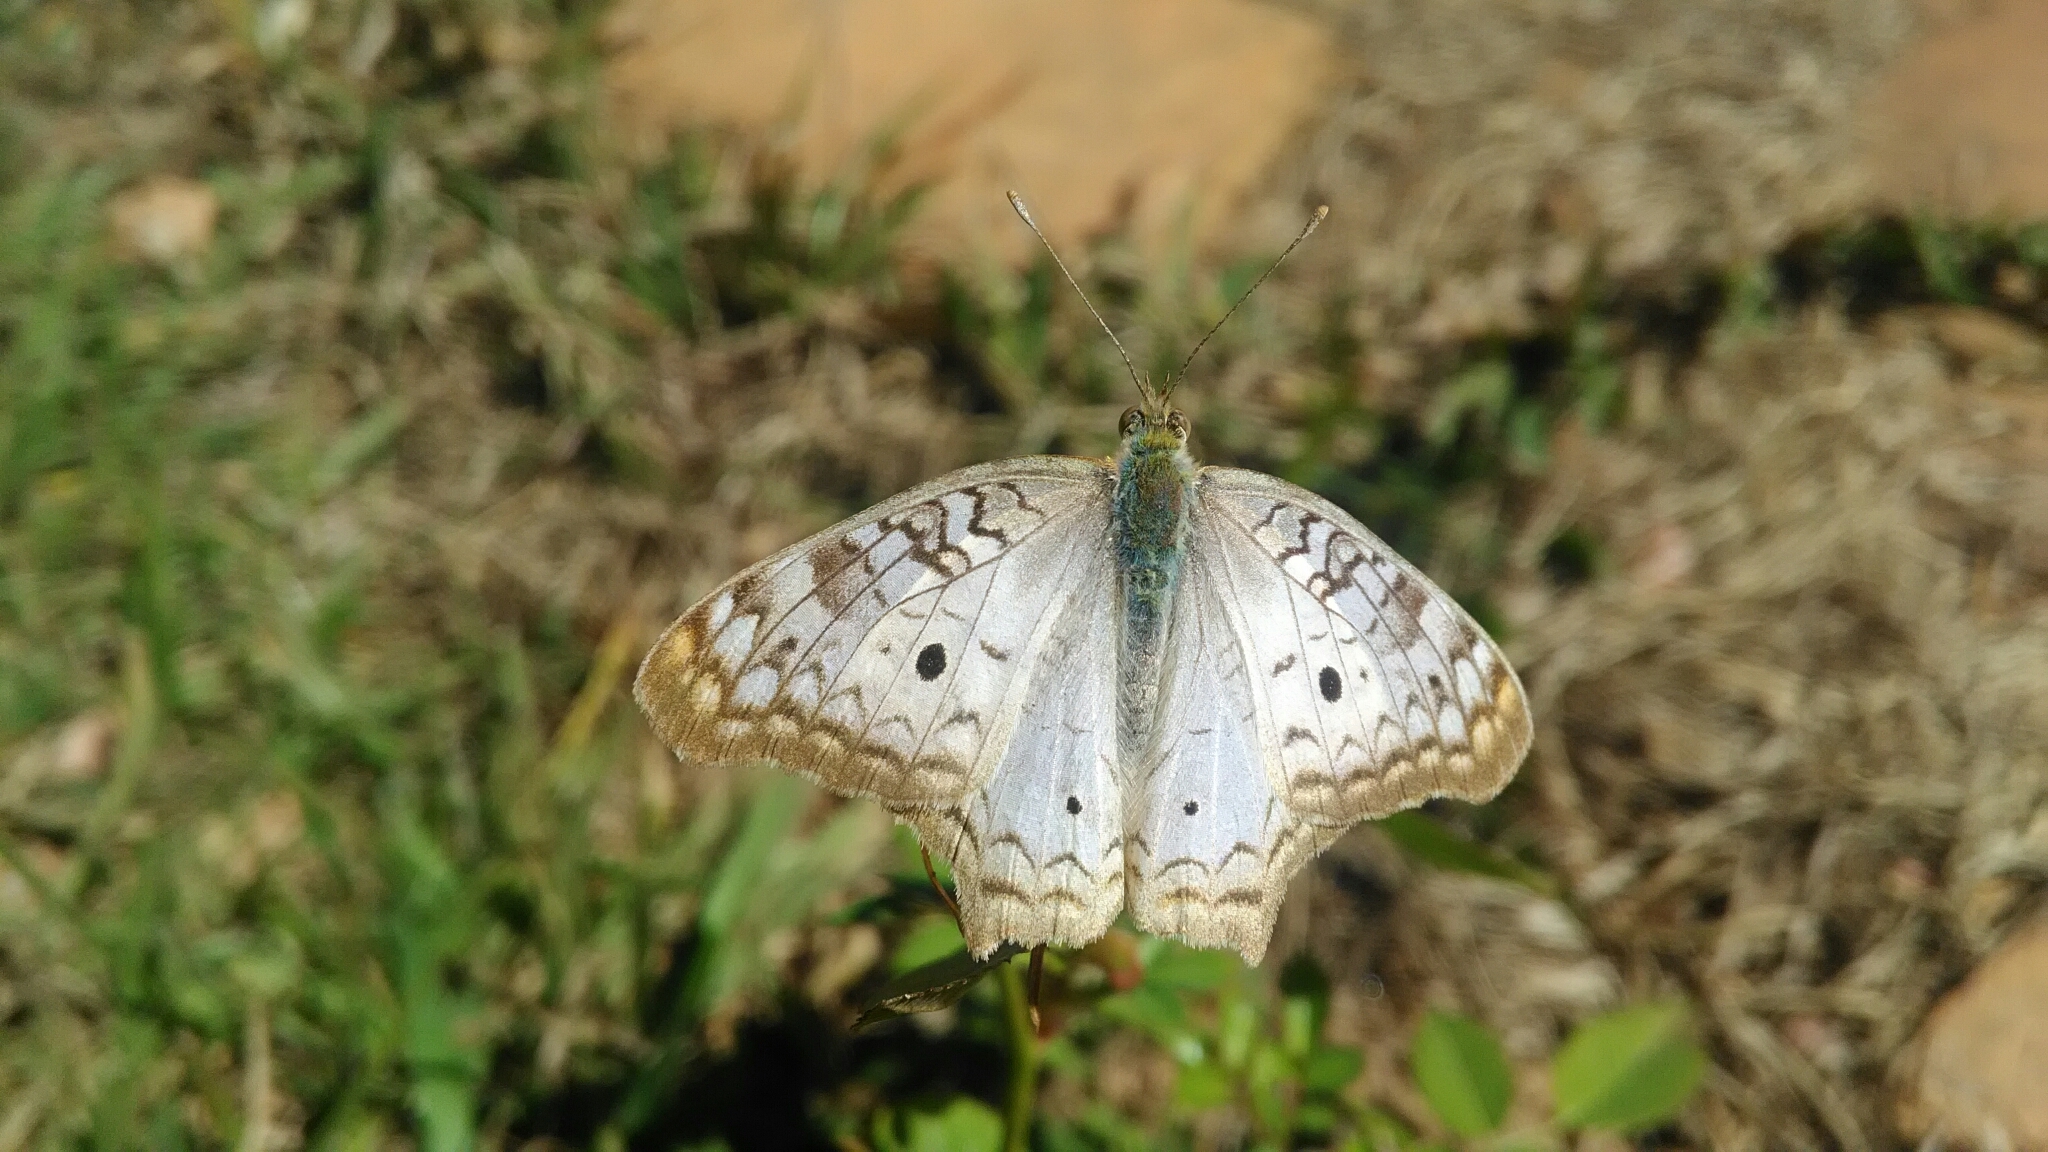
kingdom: Animalia
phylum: Arthropoda
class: Insecta
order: Lepidoptera
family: Nymphalidae
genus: Anartia
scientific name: Anartia jatrophae
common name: White peacock
